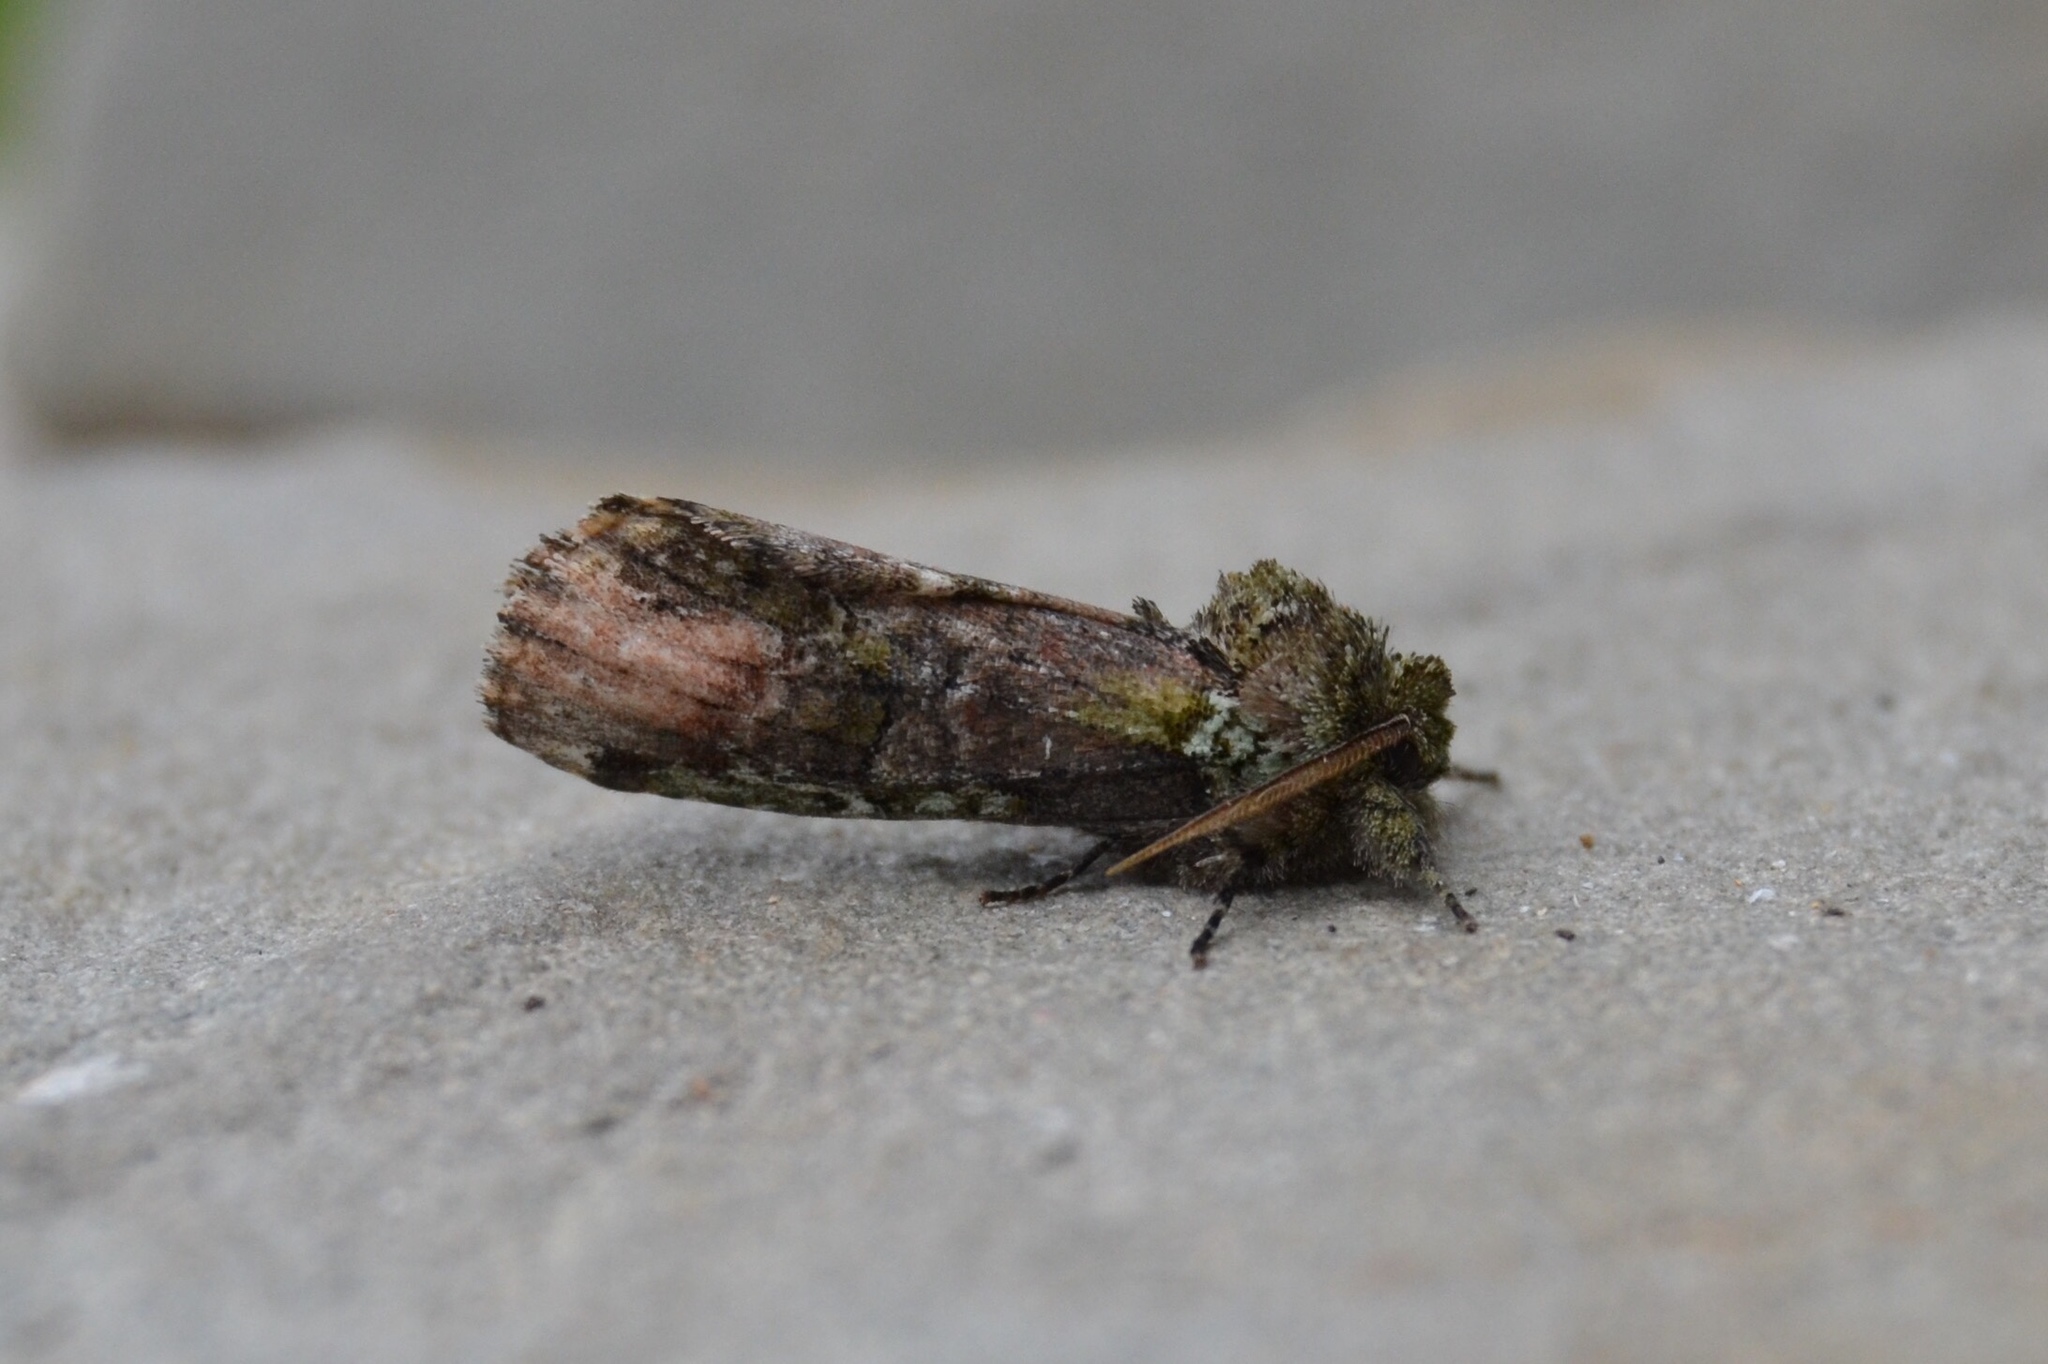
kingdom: Animalia
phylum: Arthropoda
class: Insecta
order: Lepidoptera
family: Notodontidae
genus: Schizura
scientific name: Schizura
